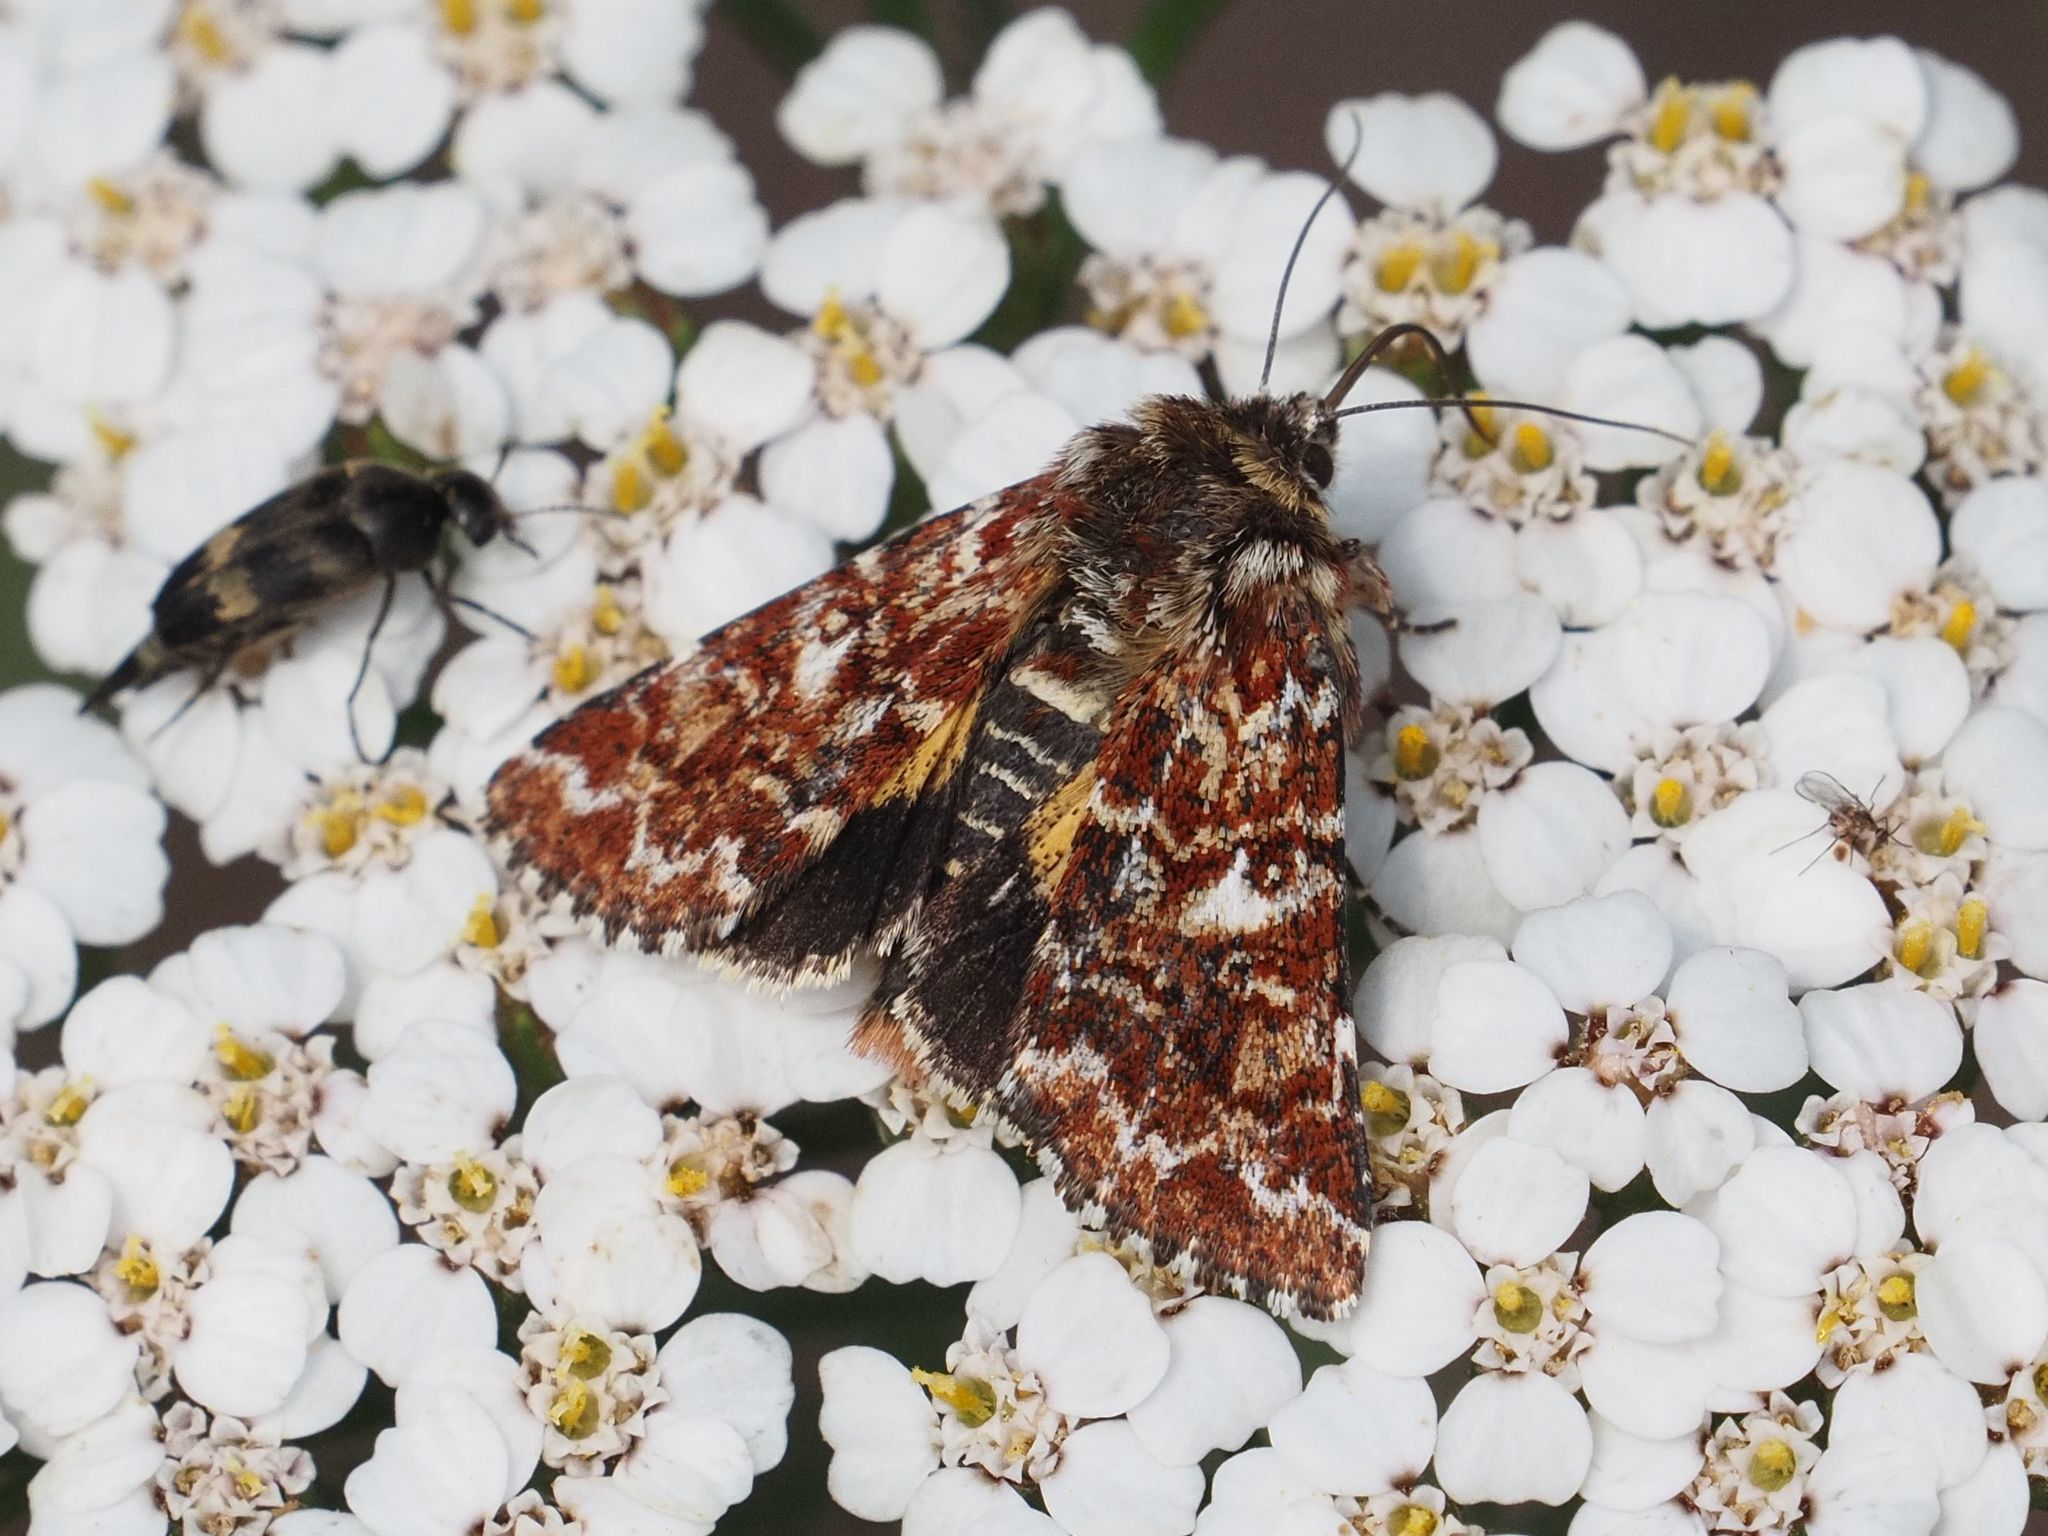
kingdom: Animalia
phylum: Arthropoda
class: Insecta
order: Lepidoptera
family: Noctuidae
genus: Anarta
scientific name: Anarta myrtilli
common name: Beautiful yellow underwing
